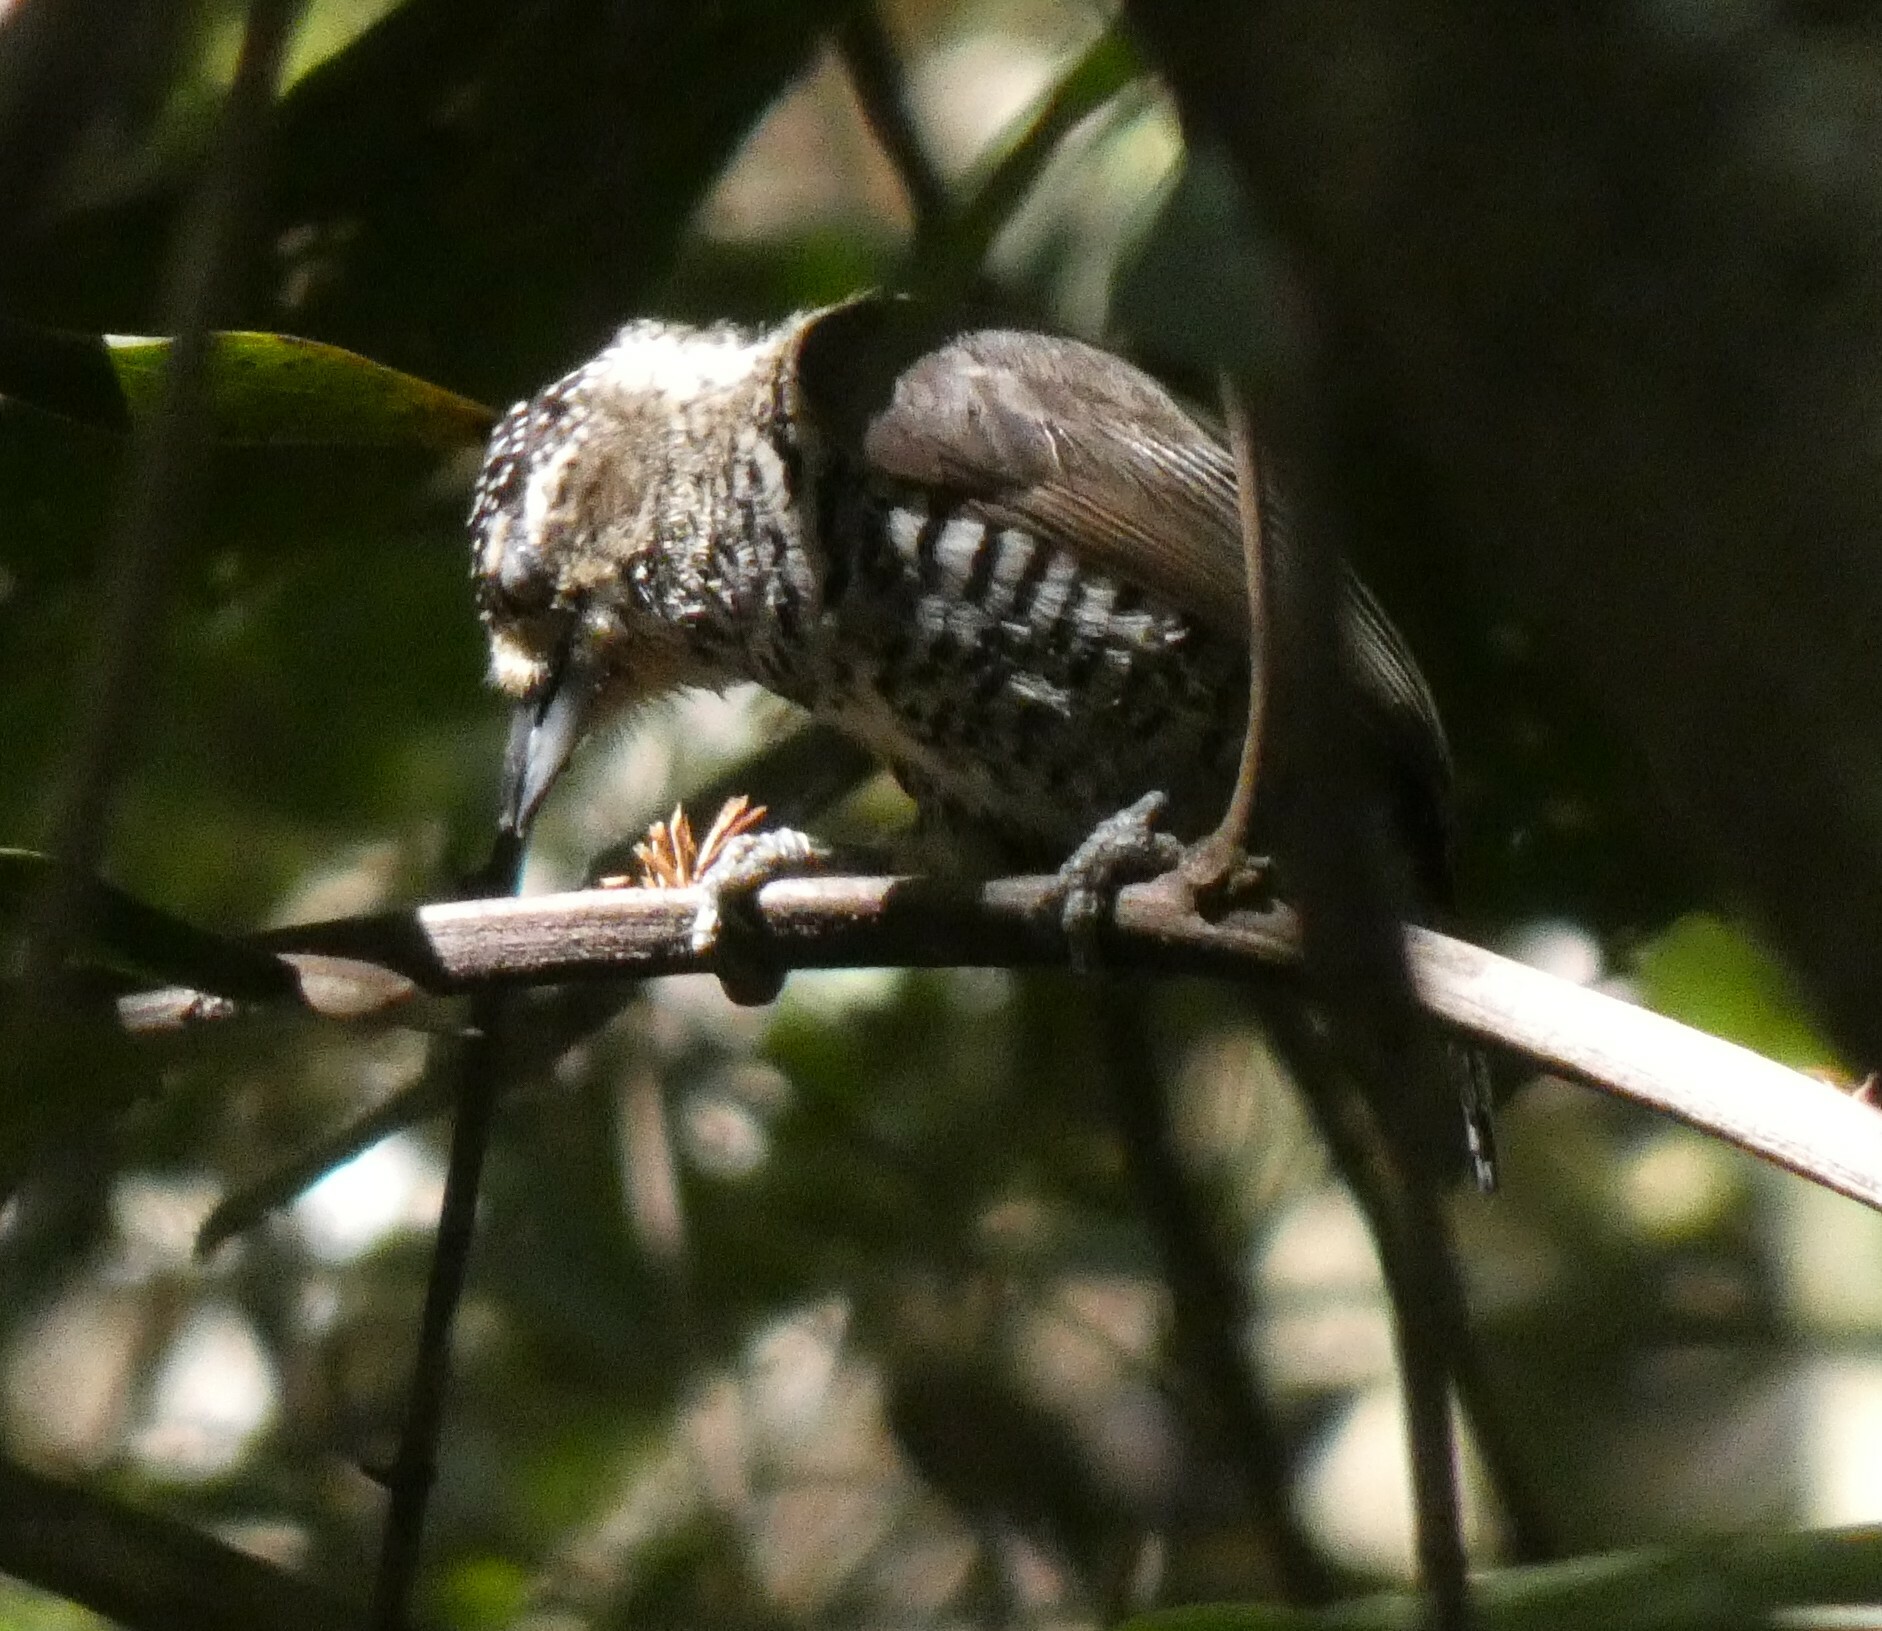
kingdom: Animalia
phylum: Chordata
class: Aves
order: Piciformes
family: Picidae
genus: Picumnus
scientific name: Picumnus cirratus
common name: White-barred piculet
